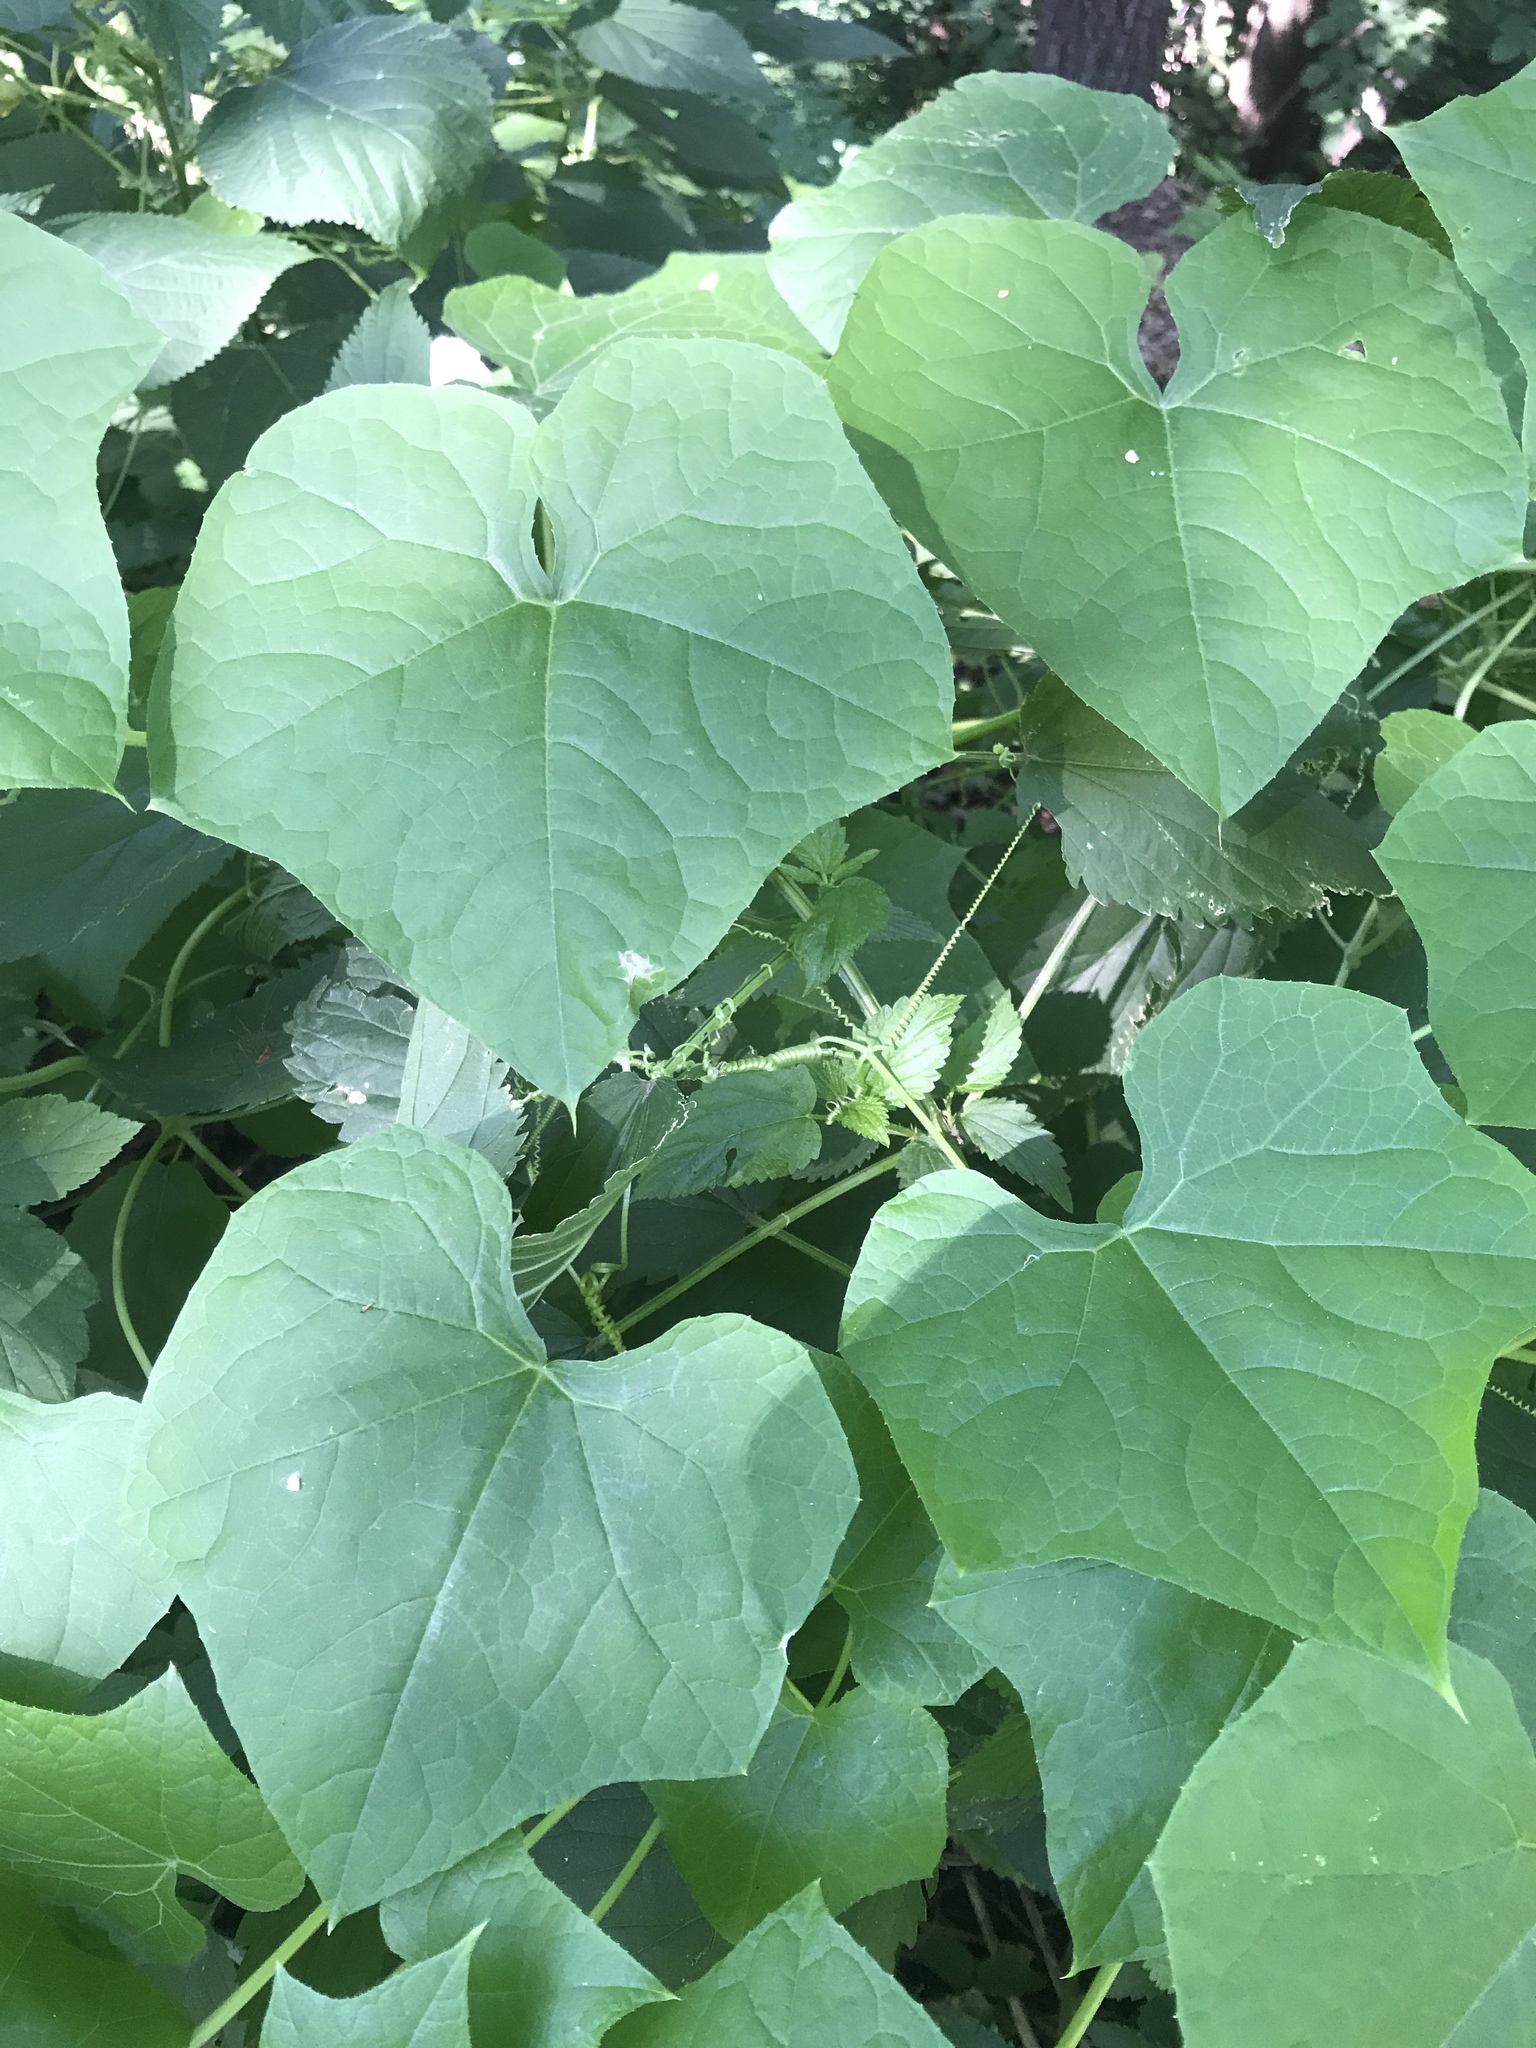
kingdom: Plantae
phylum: Tracheophyta
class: Magnoliopsida
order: Cucurbitales
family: Cucurbitaceae
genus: Sicyos
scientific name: Sicyos angulatus
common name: Angled burr cucumber
